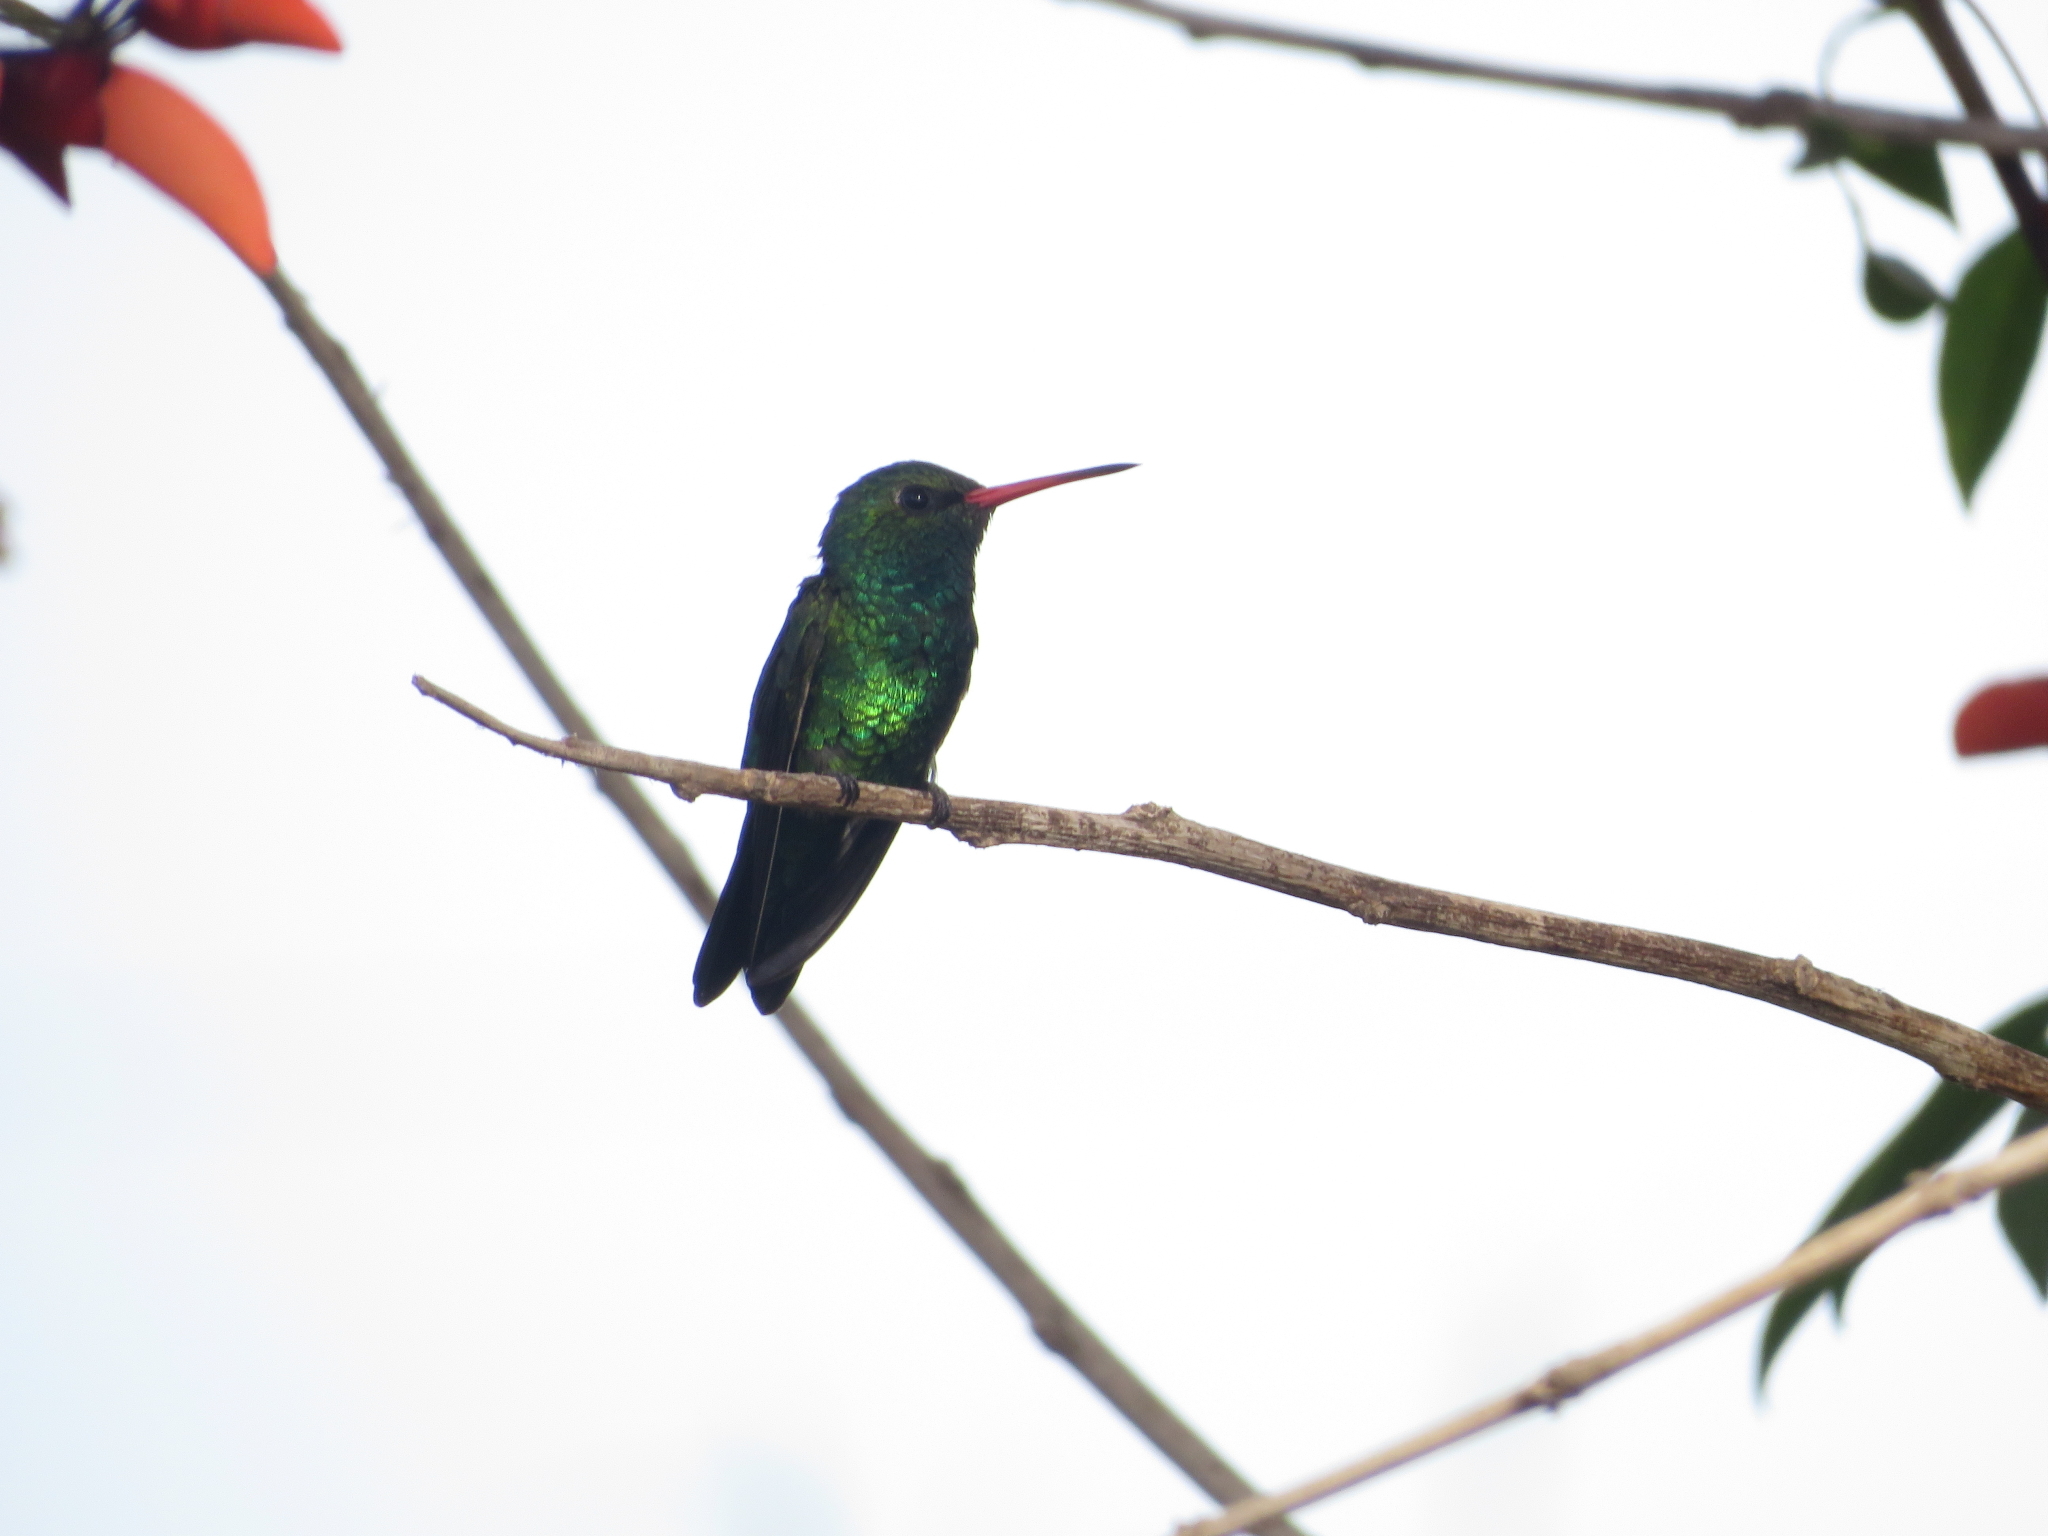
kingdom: Animalia
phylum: Chordata
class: Aves
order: Apodiformes
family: Trochilidae
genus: Chlorostilbon
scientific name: Chlorostilbon lucidus
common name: Glittering-bellied emerald
